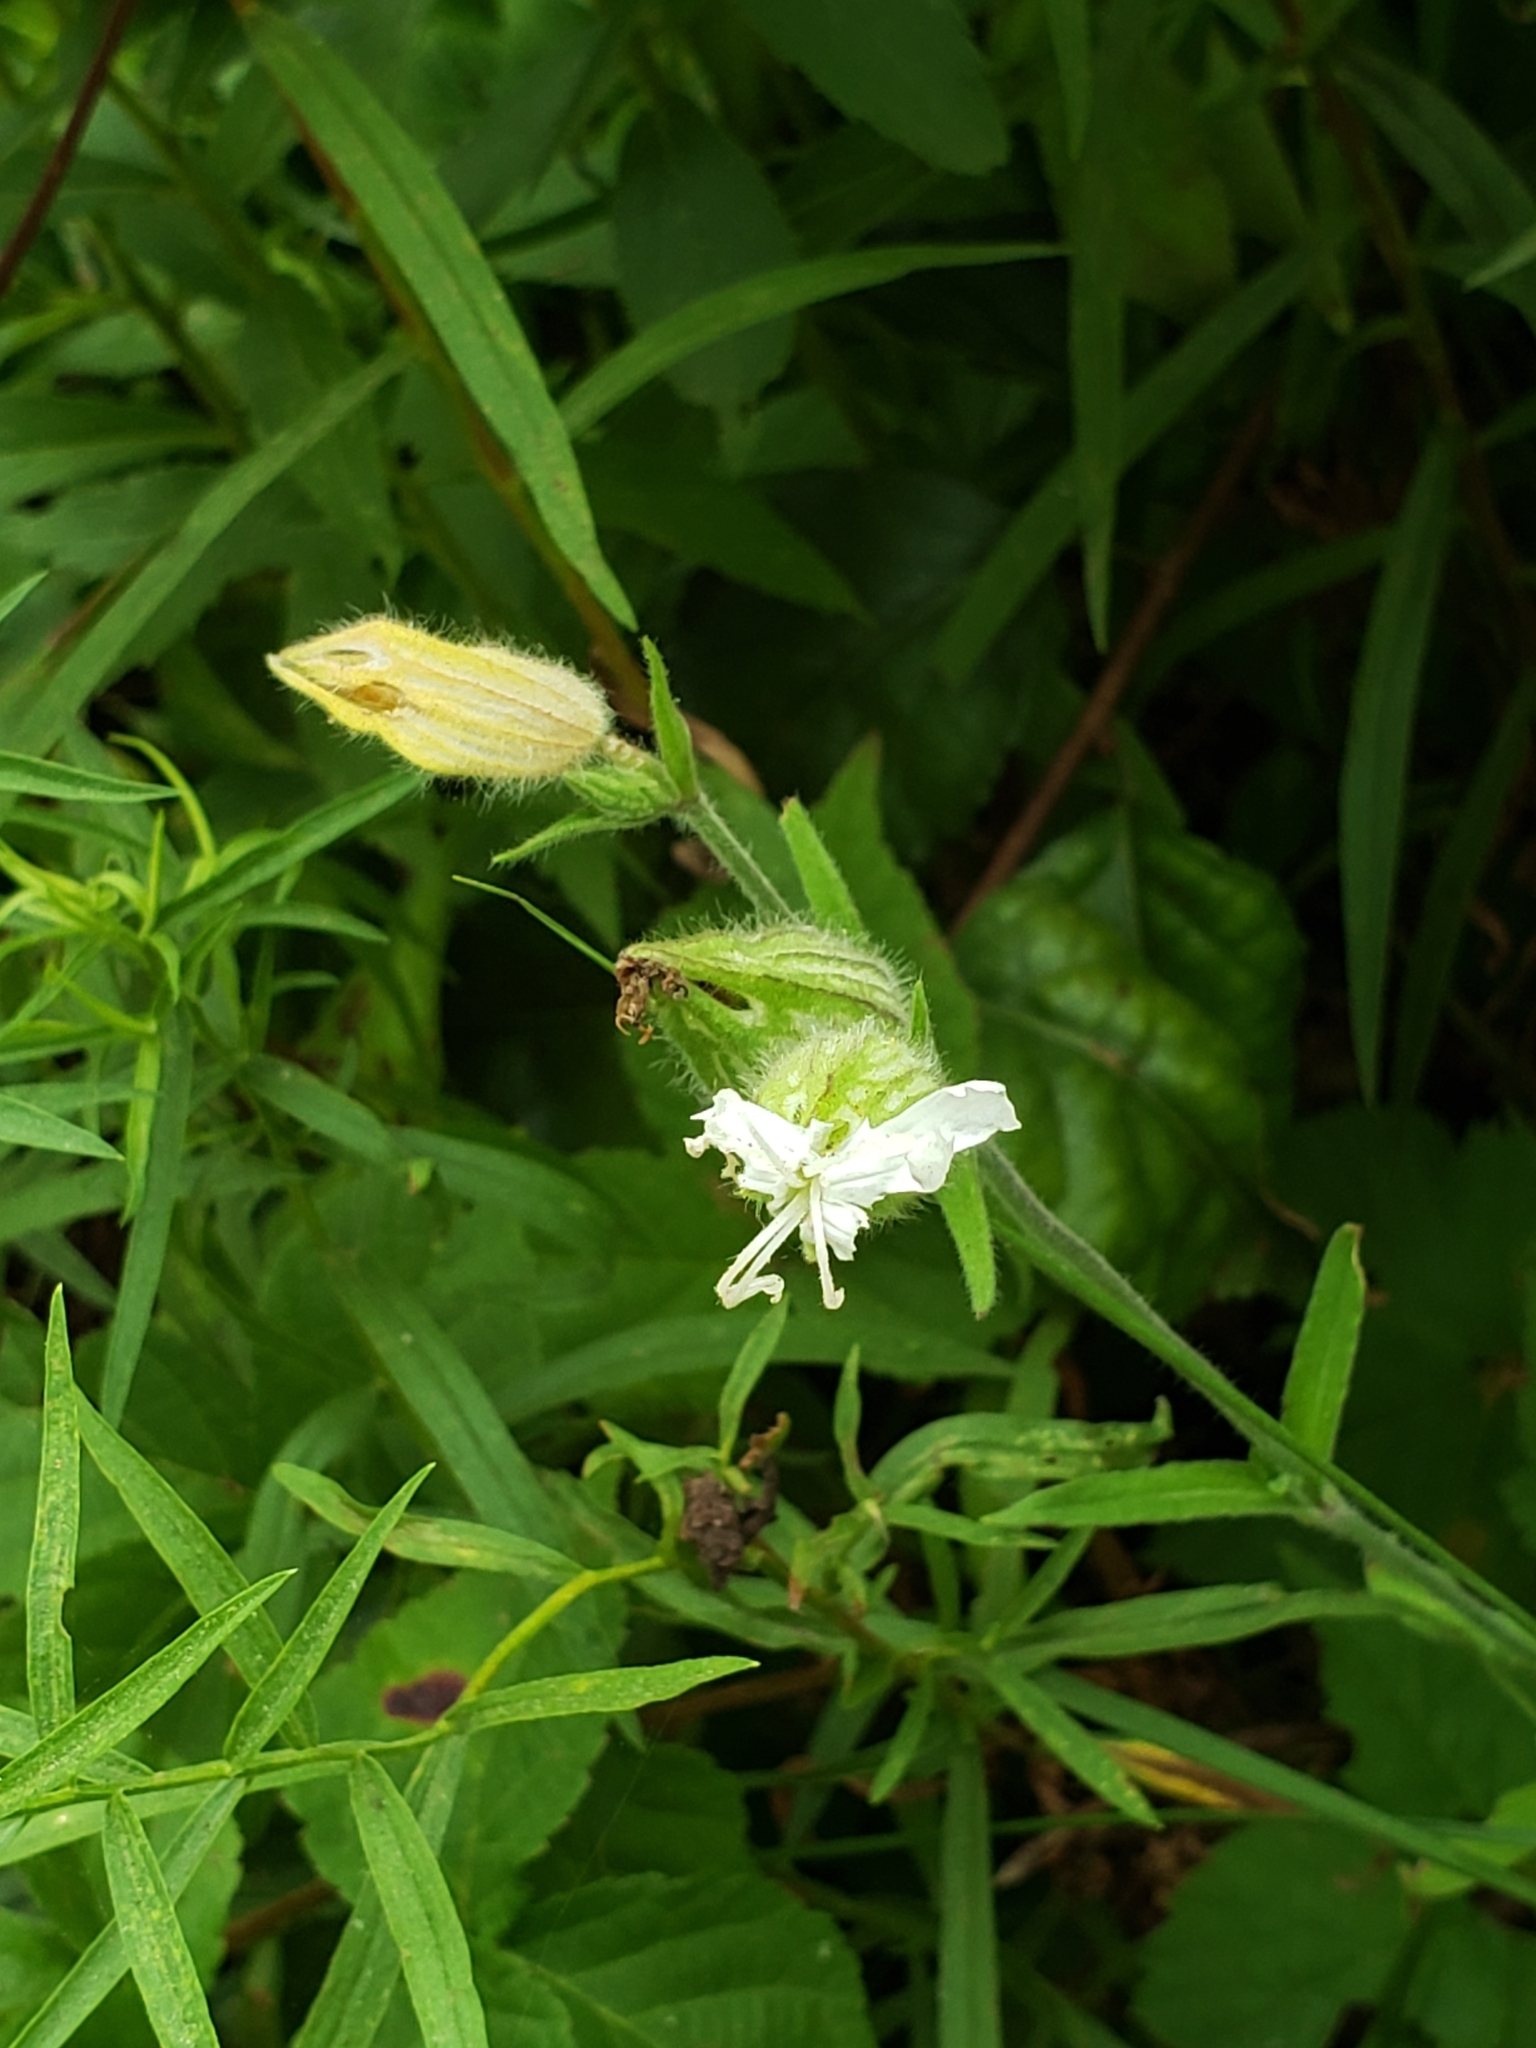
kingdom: Plantae
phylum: Tracheophyta
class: Magnoliopsida
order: Caryophyllales
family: Caryophyllaceae
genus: Silene
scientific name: Silene latifolia
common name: White campion
